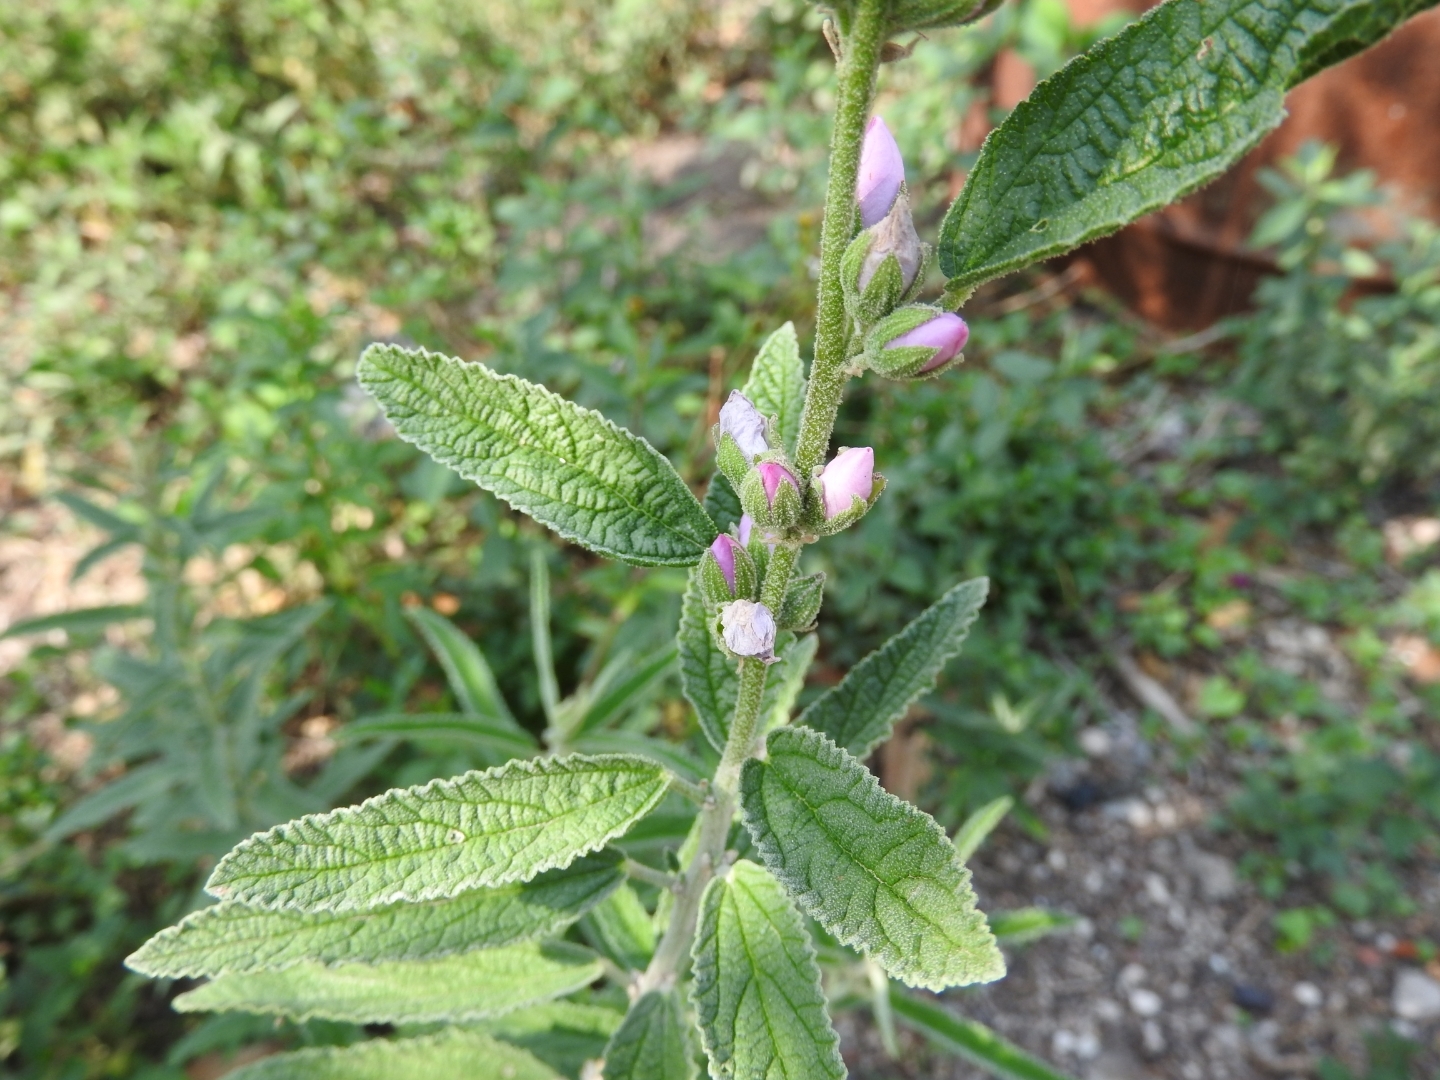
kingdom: Plantae
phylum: Tracheophyta
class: Magnoliopsida
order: Malvales
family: Malvaceae
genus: Sphaeralcea
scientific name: Sphaeralcea angustifolia
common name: Copper globe-mallow
